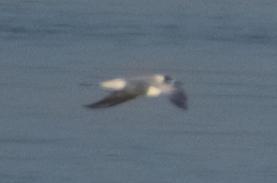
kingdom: Animalia
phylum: Chordata
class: Aves
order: Charadriiformes
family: Laridae
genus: Sterna
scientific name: Sterna forsteri
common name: Forster's tern
